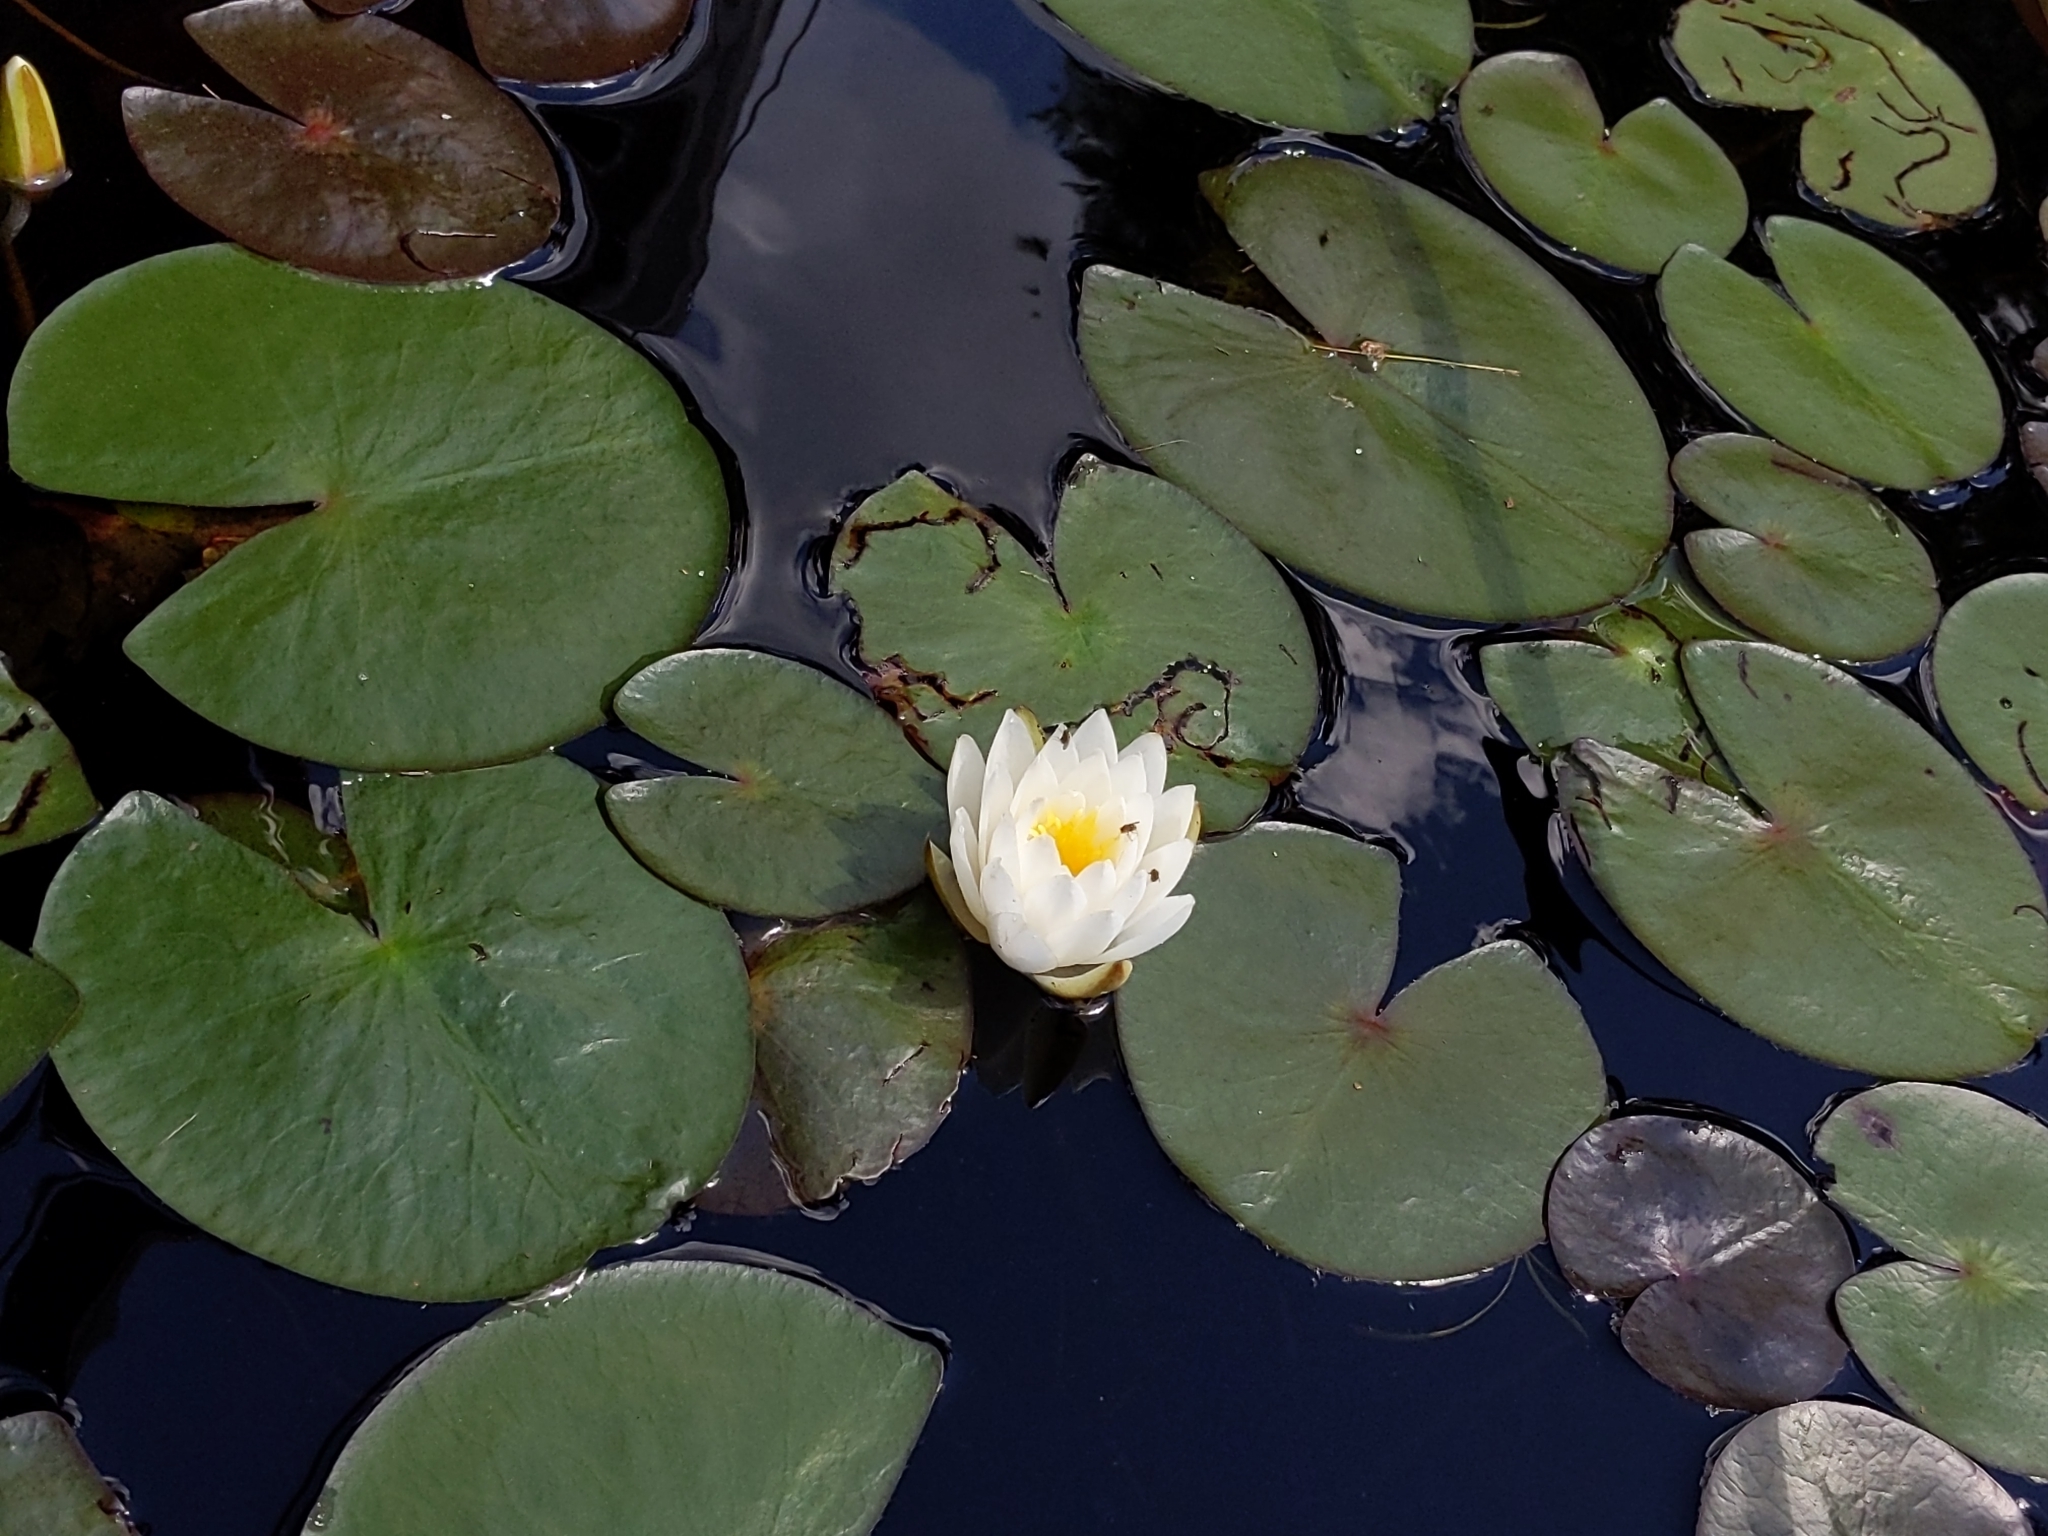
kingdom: Plantae
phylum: Tracheophyta
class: Magnoliopsida
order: Nymphaeales
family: Nymphaeaceae
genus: Nymphaea
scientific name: Nymphaea odorata
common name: Fragrant water-lily
